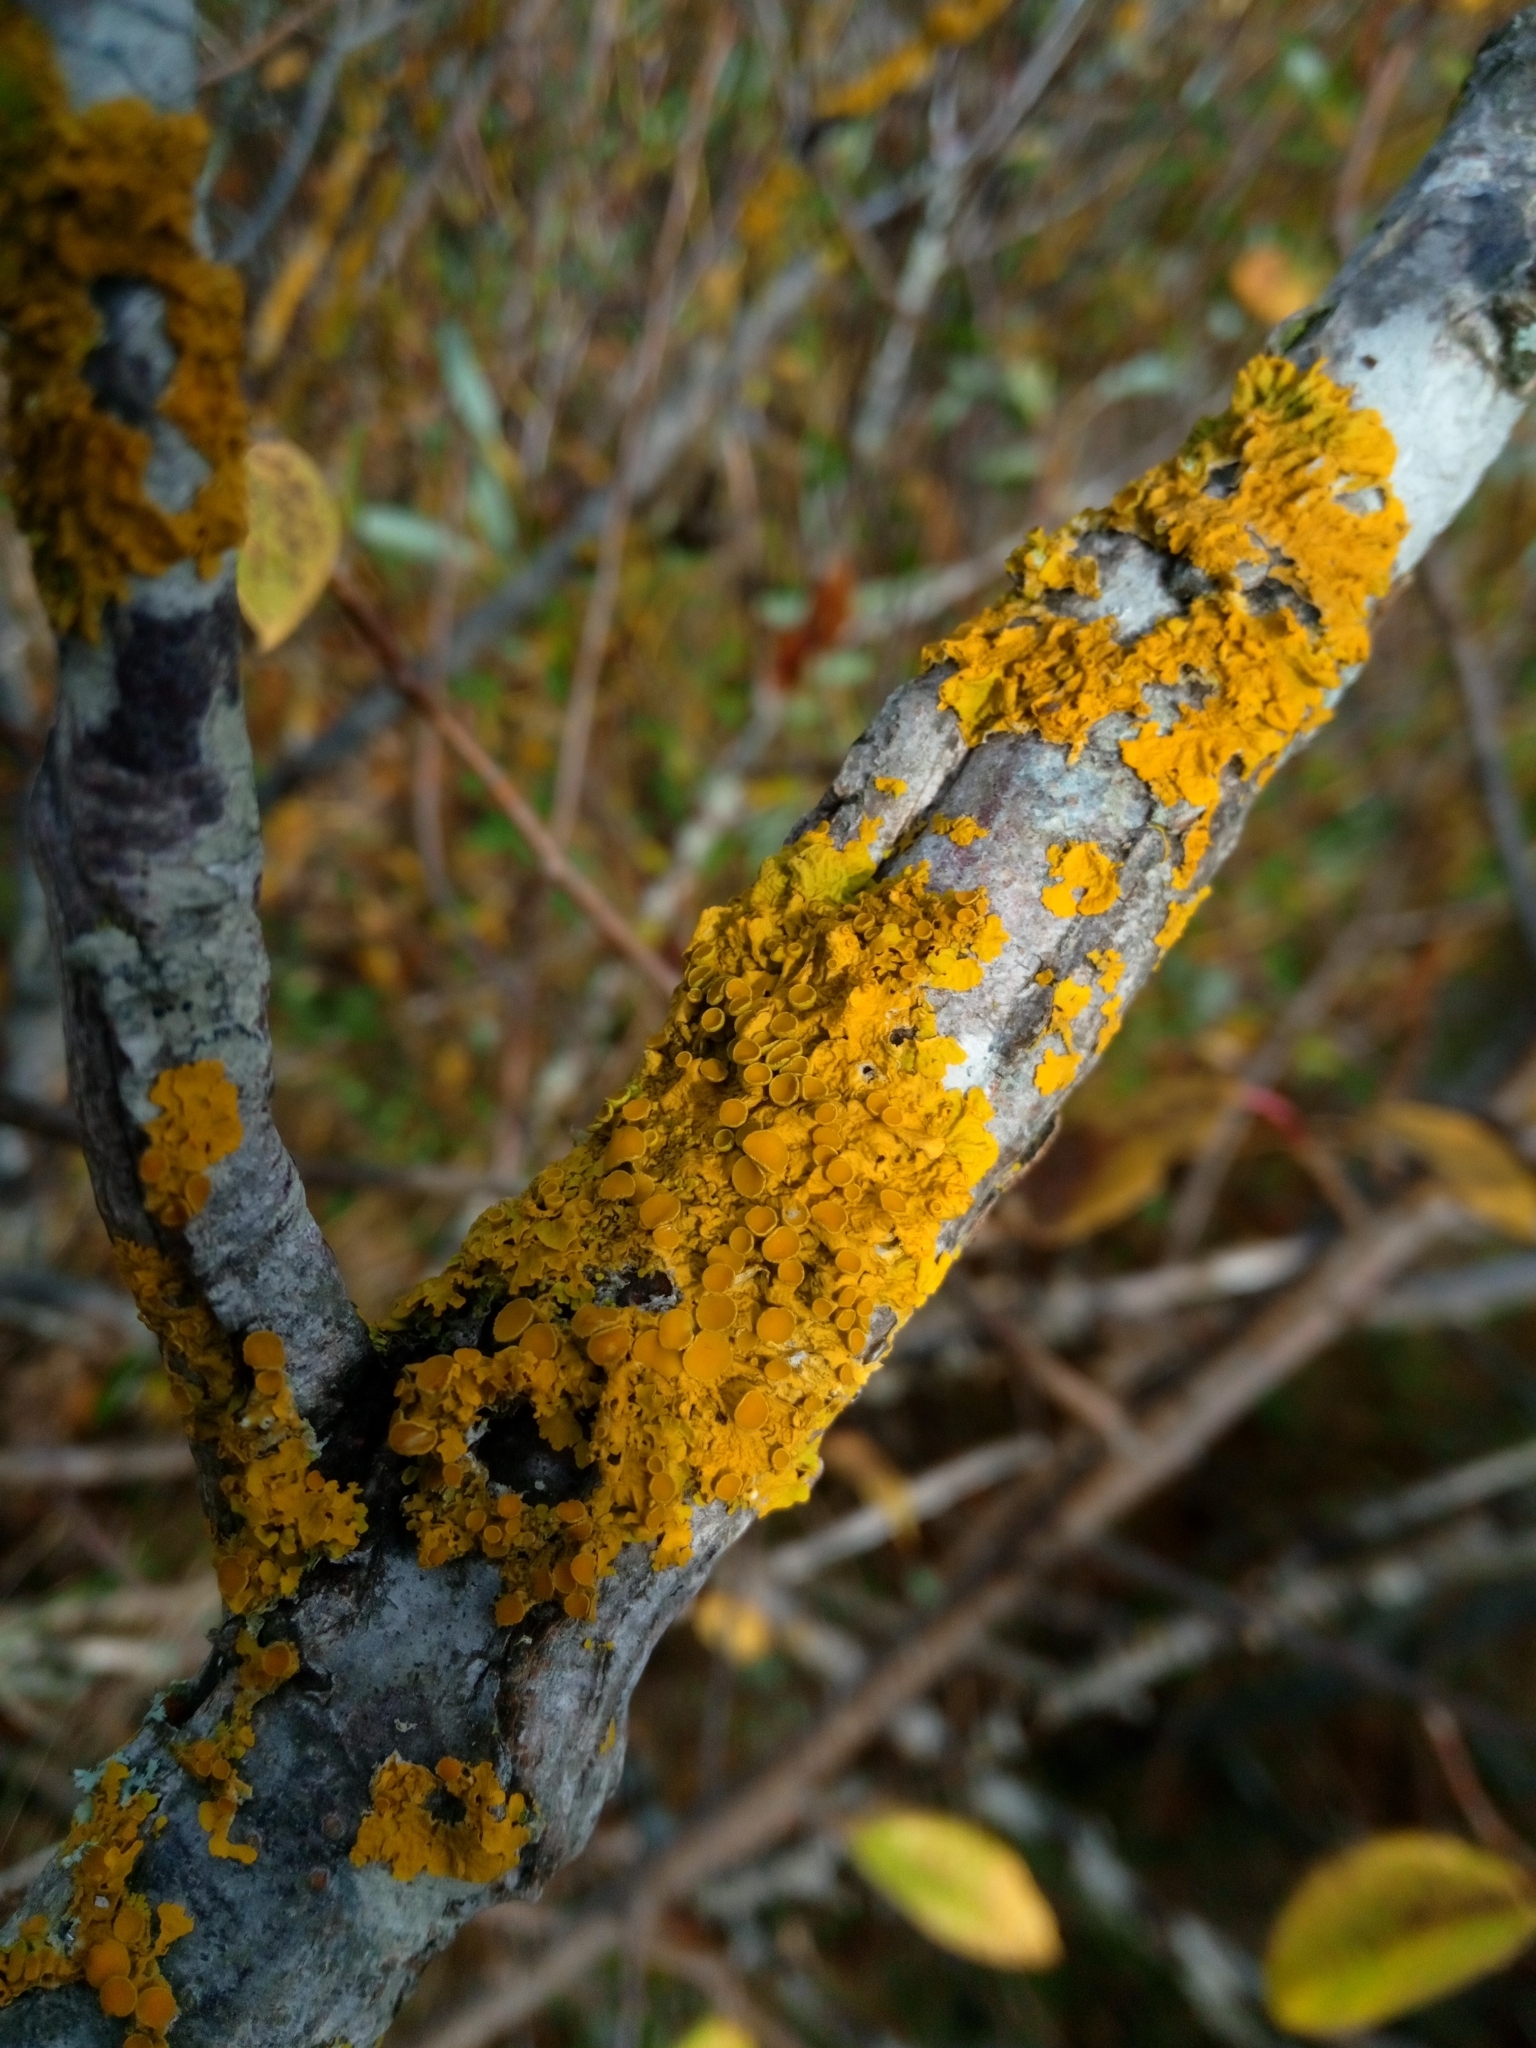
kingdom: Fungi
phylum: Ascomycota
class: Lecanoromycetes
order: Teloschistales
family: Teloschistaceae
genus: Xanthoria
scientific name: Xanthoria parietina
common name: Common orange lichen
